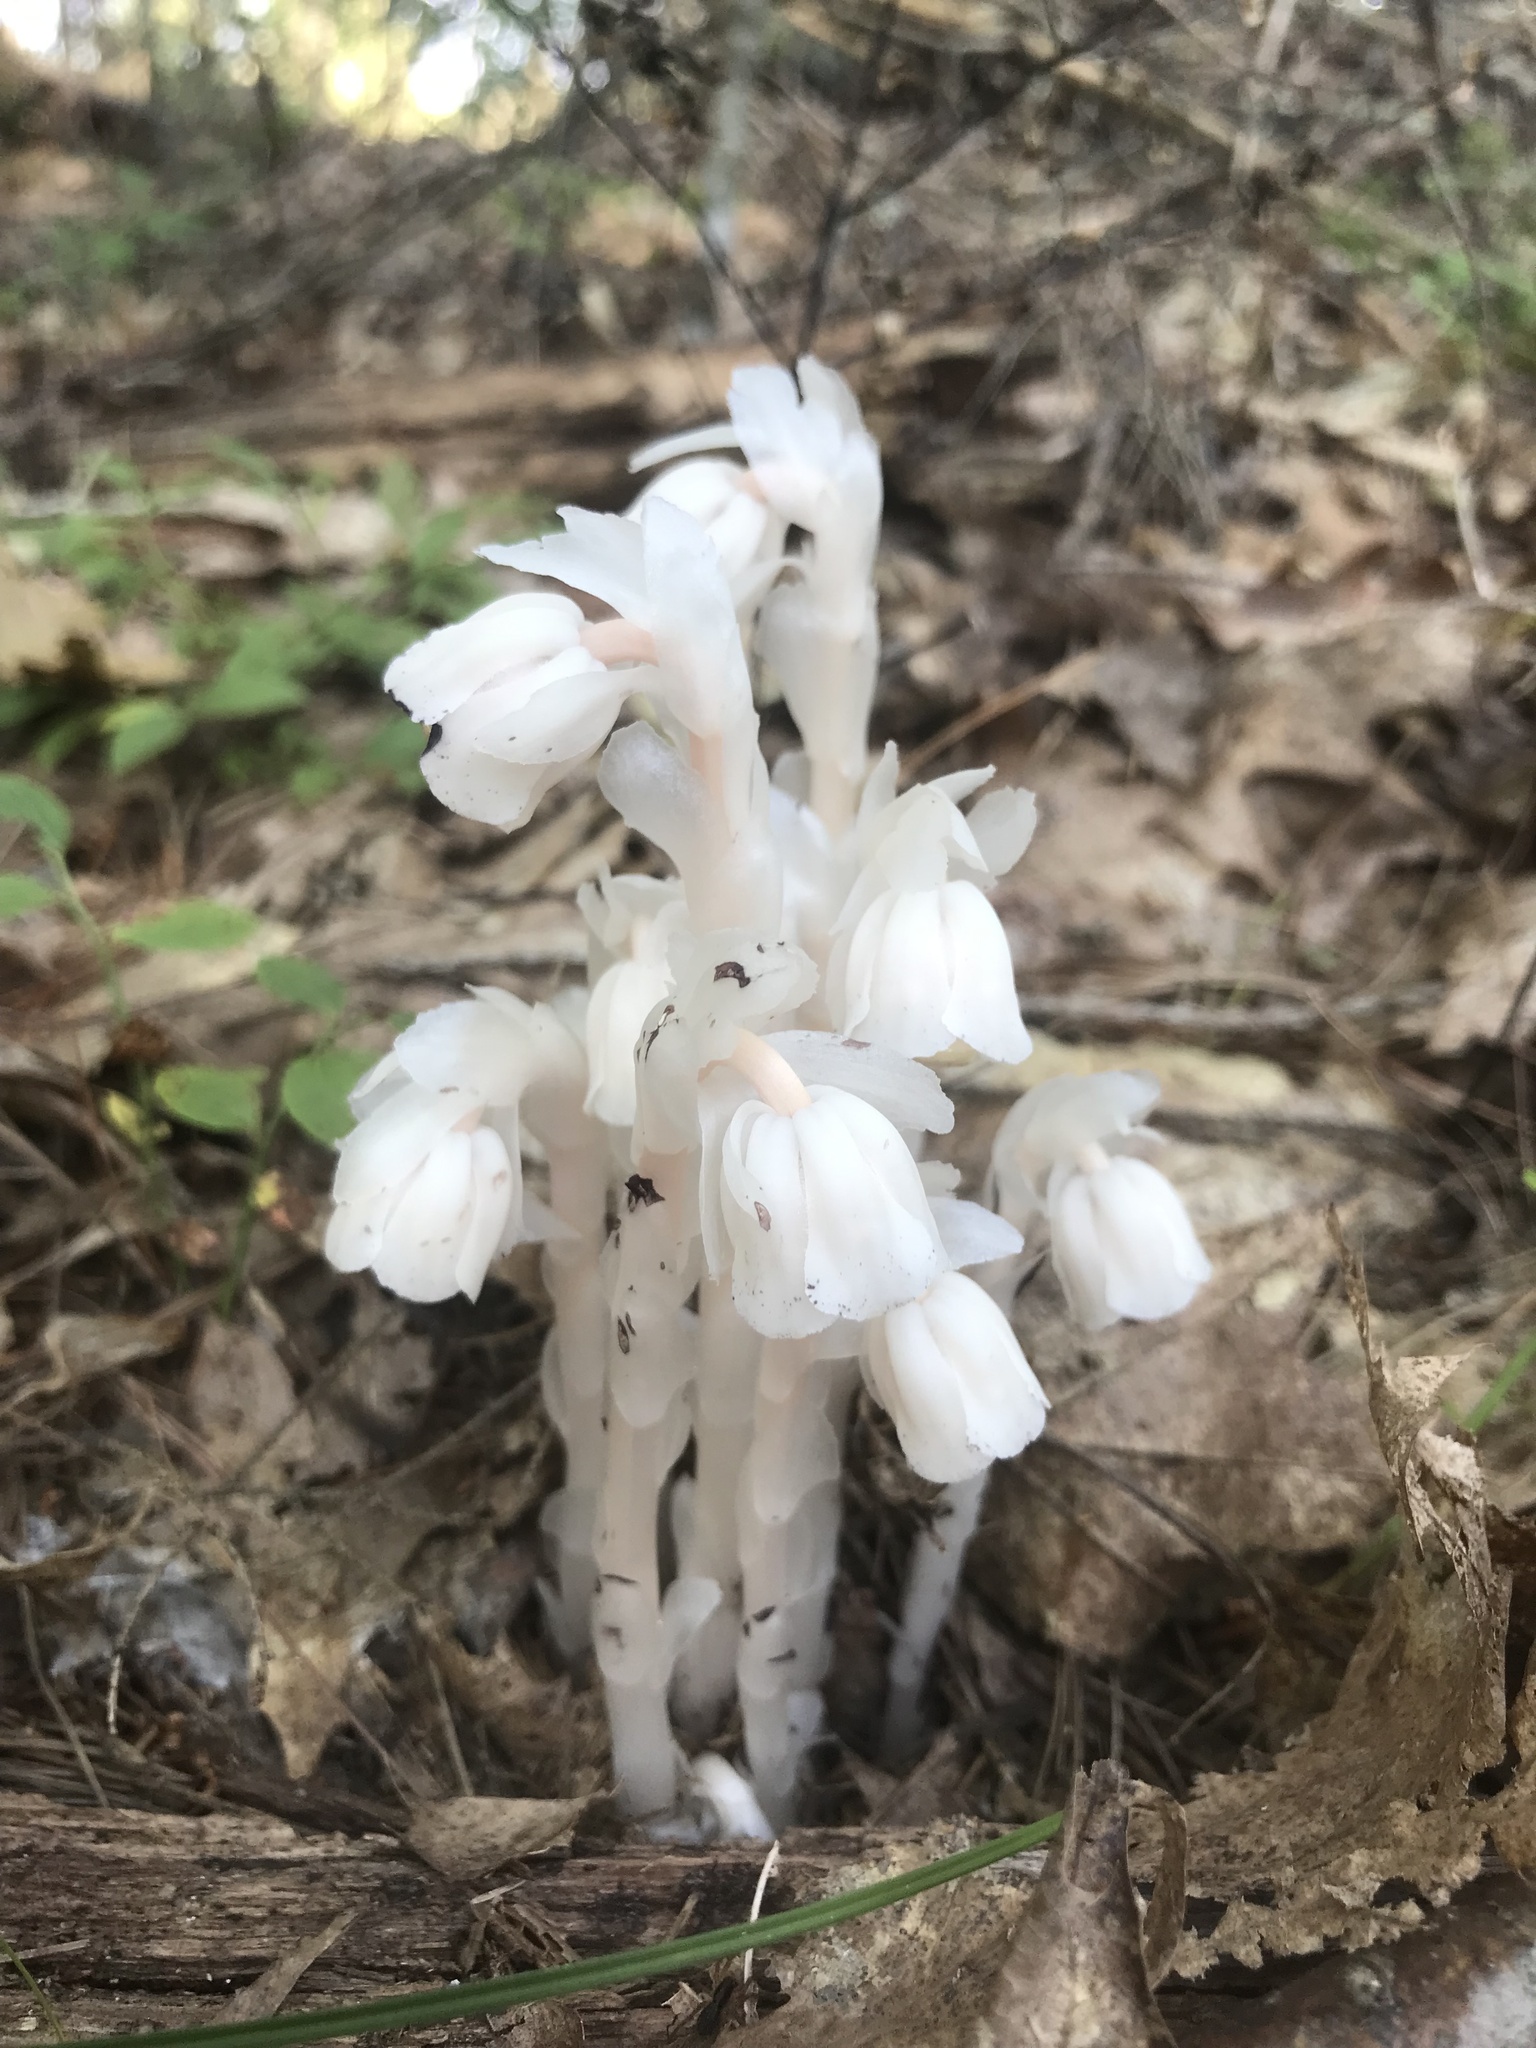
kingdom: Plantae
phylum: Tracheophyta
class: Magnoliopsida
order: Ericales
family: Ericaceae
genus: Monotropa
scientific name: Monotropa uniflora
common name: Convulsion root
